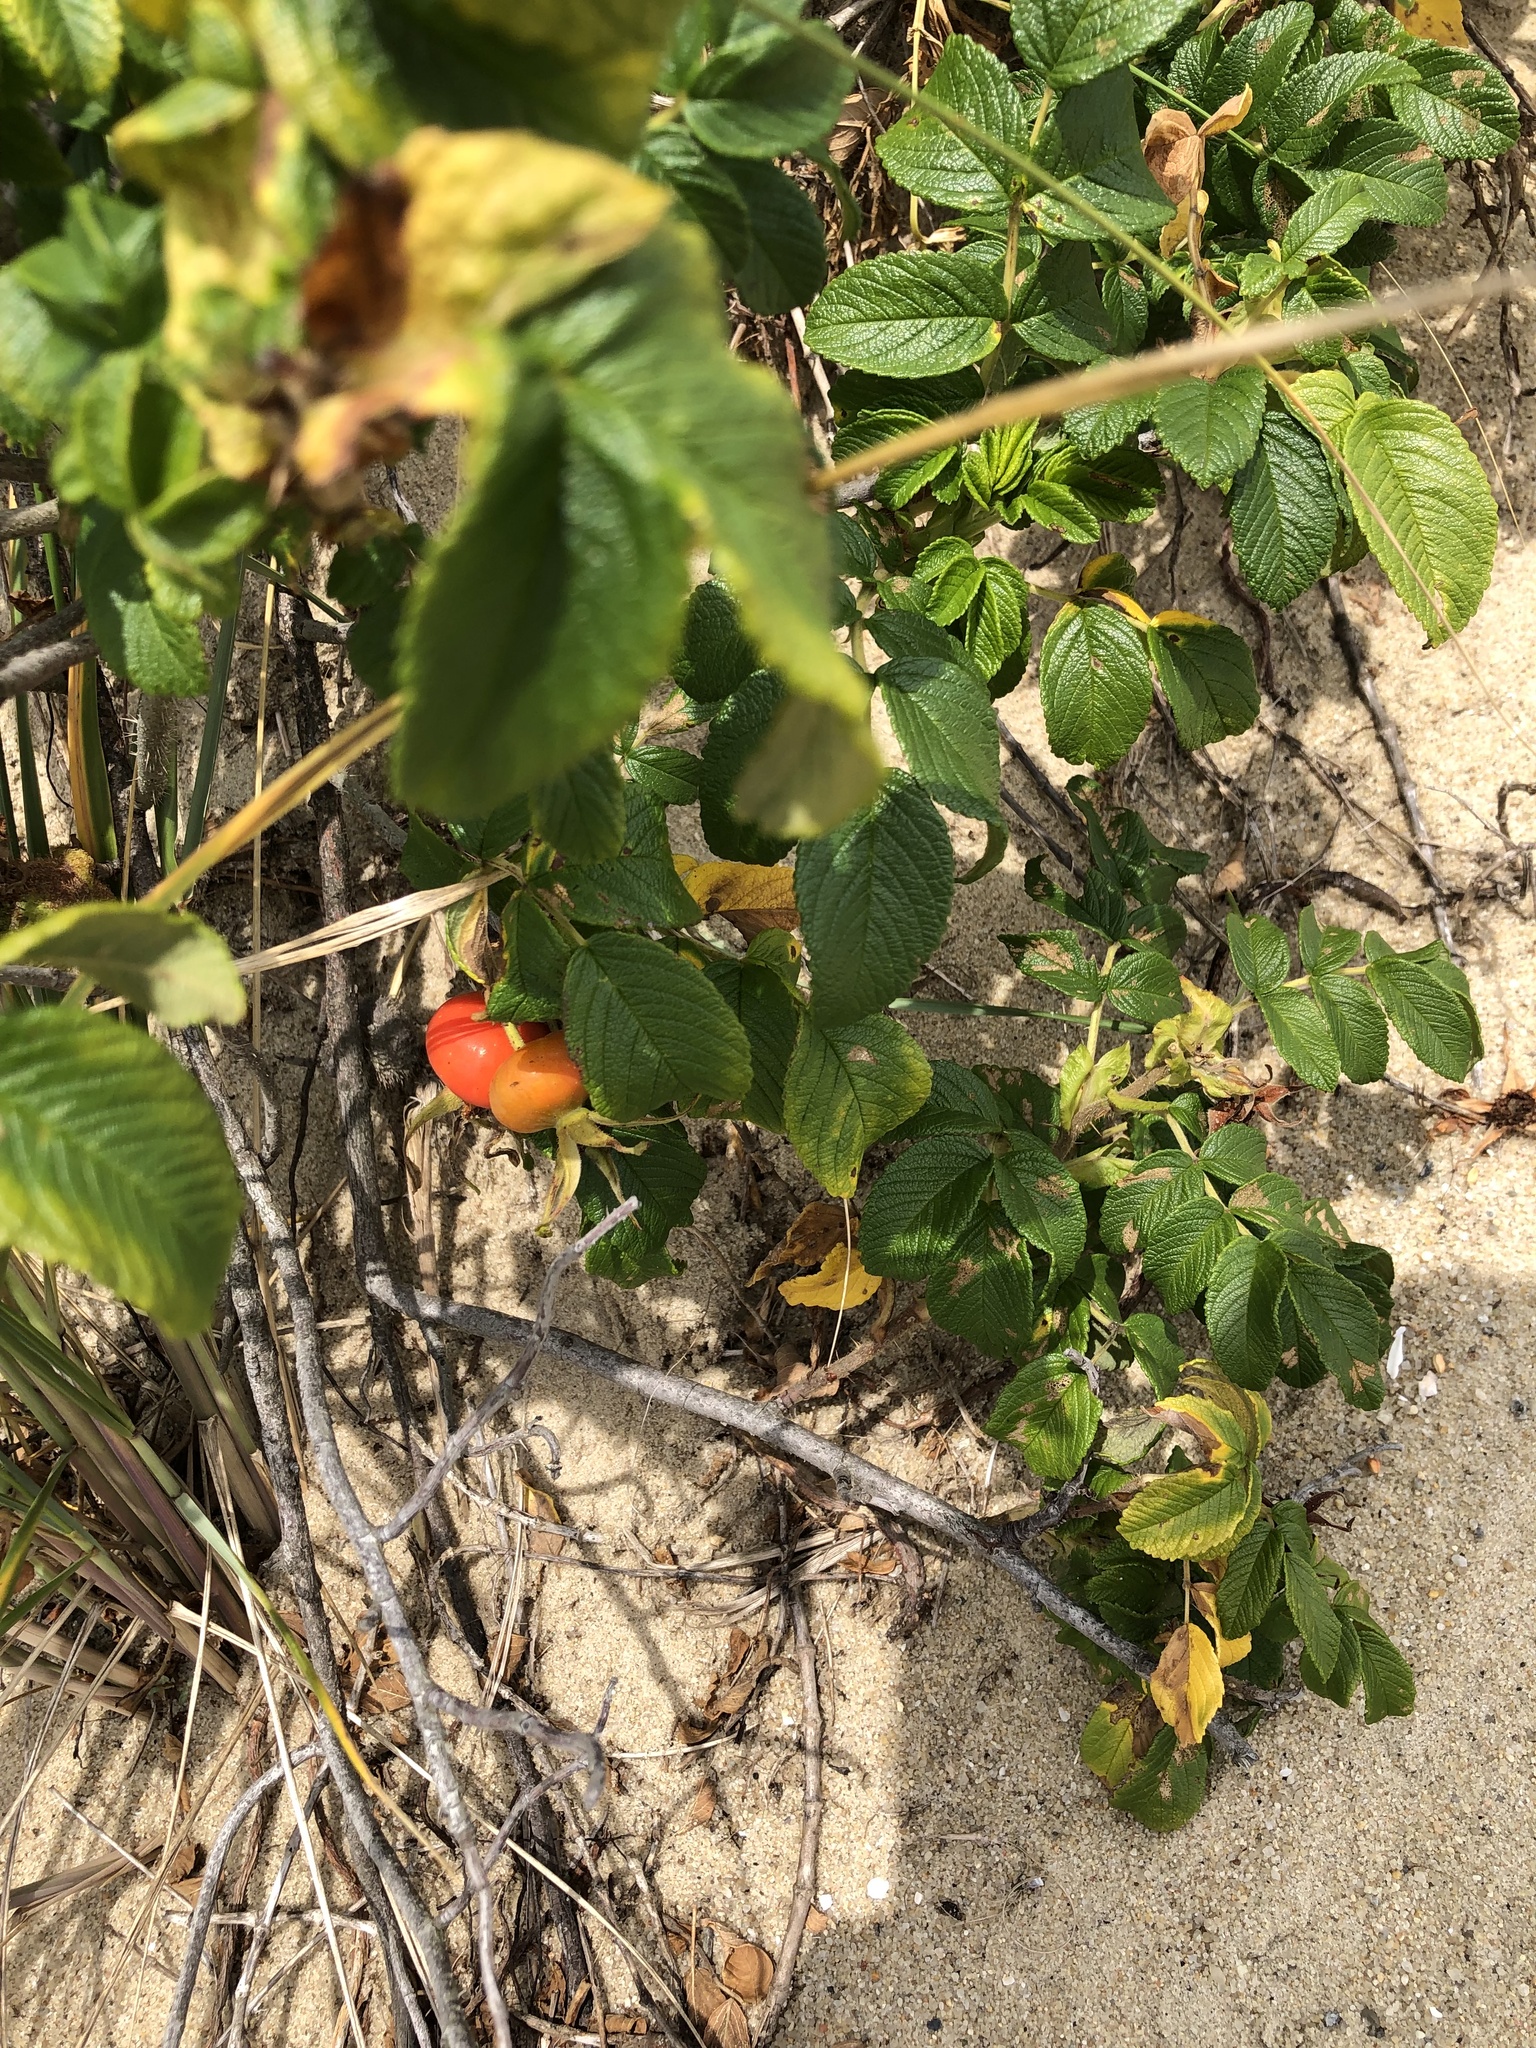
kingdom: Plantae
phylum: Tracheophyta
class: Magnoliopsida
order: Rosales
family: Rosaceae
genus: Rosa
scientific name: Rosa rugosa
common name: Japanese rose
